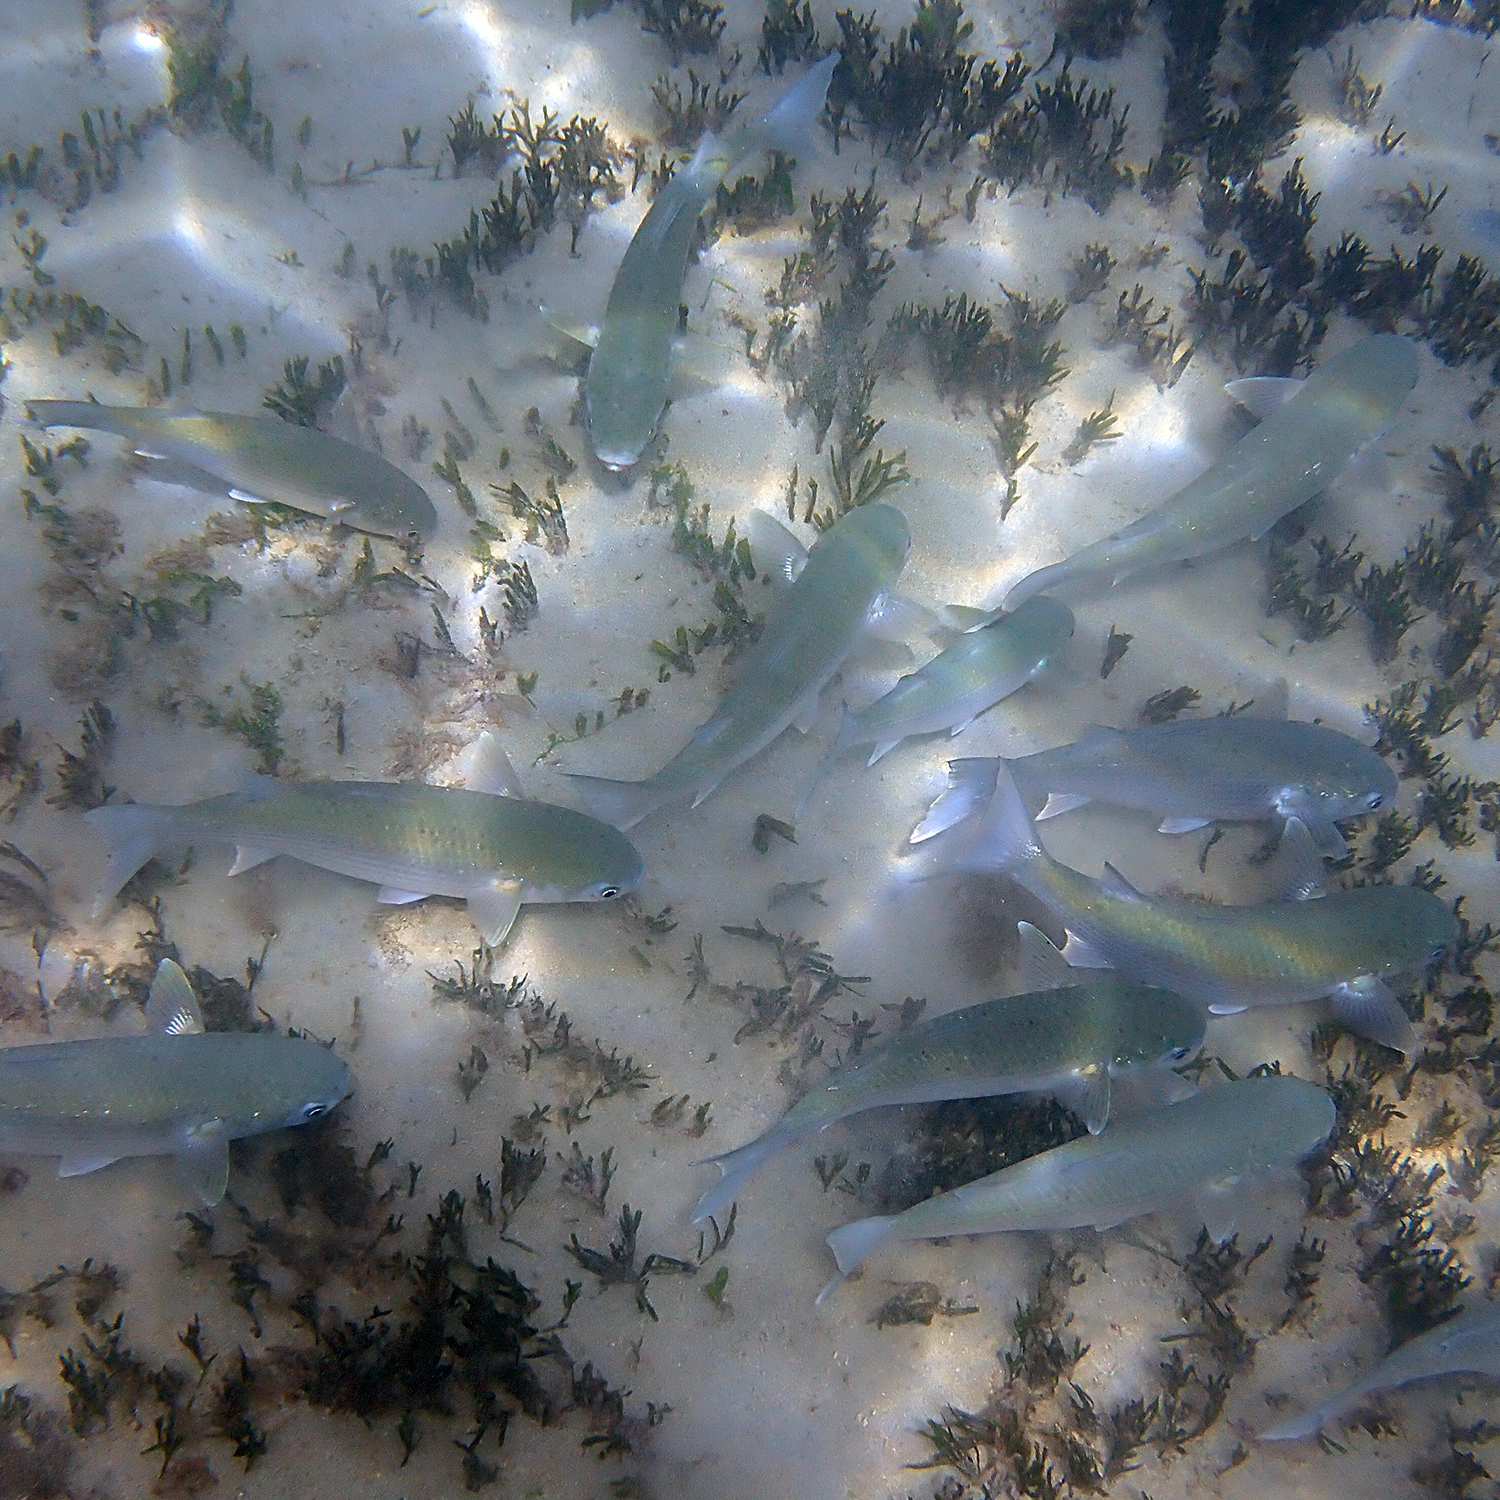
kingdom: Animalia
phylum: Chordata
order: Mugiliformes
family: Mugilidae
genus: Mugil
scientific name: Mugil cephalus
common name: Grey mullet
